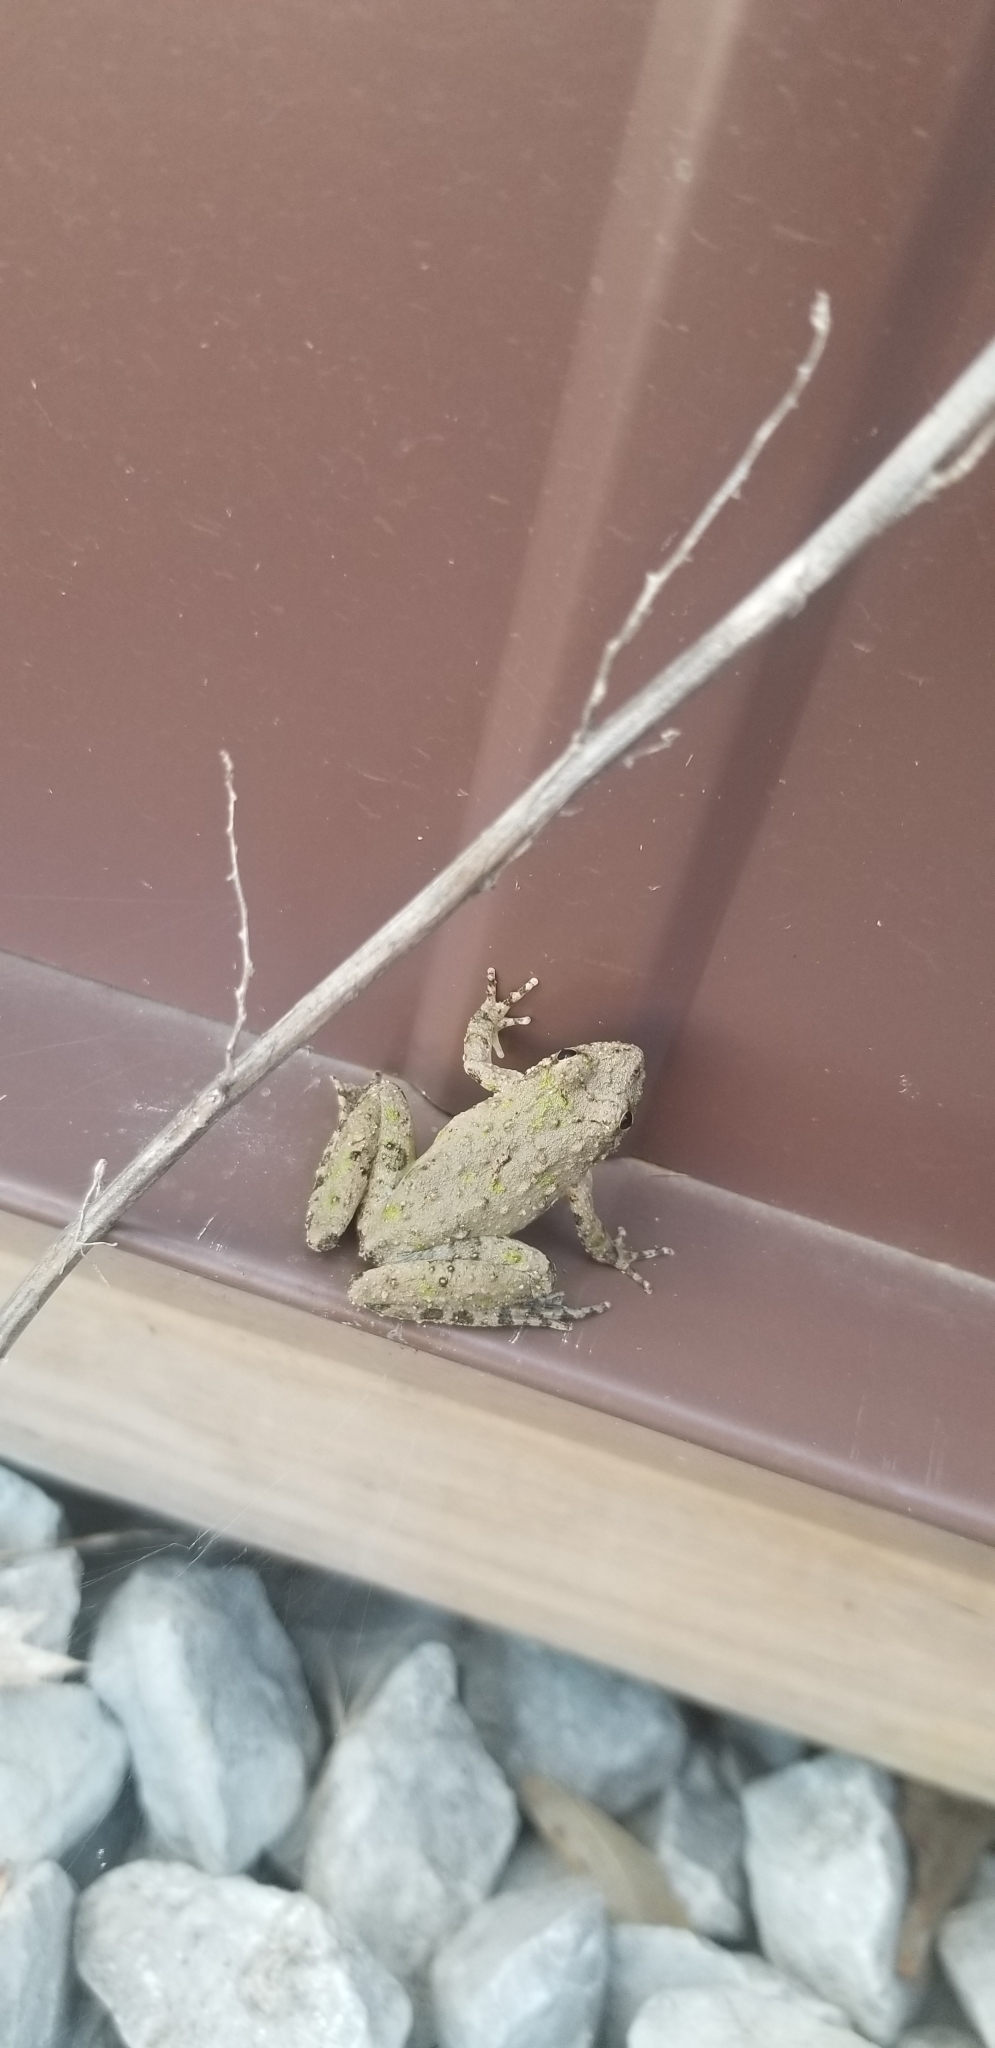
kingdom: Animalia
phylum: Chordata
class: Amphibia
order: Anura
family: Hylidae
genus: Acris
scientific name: Acris blanchardi
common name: Blanchard's cricket frog
